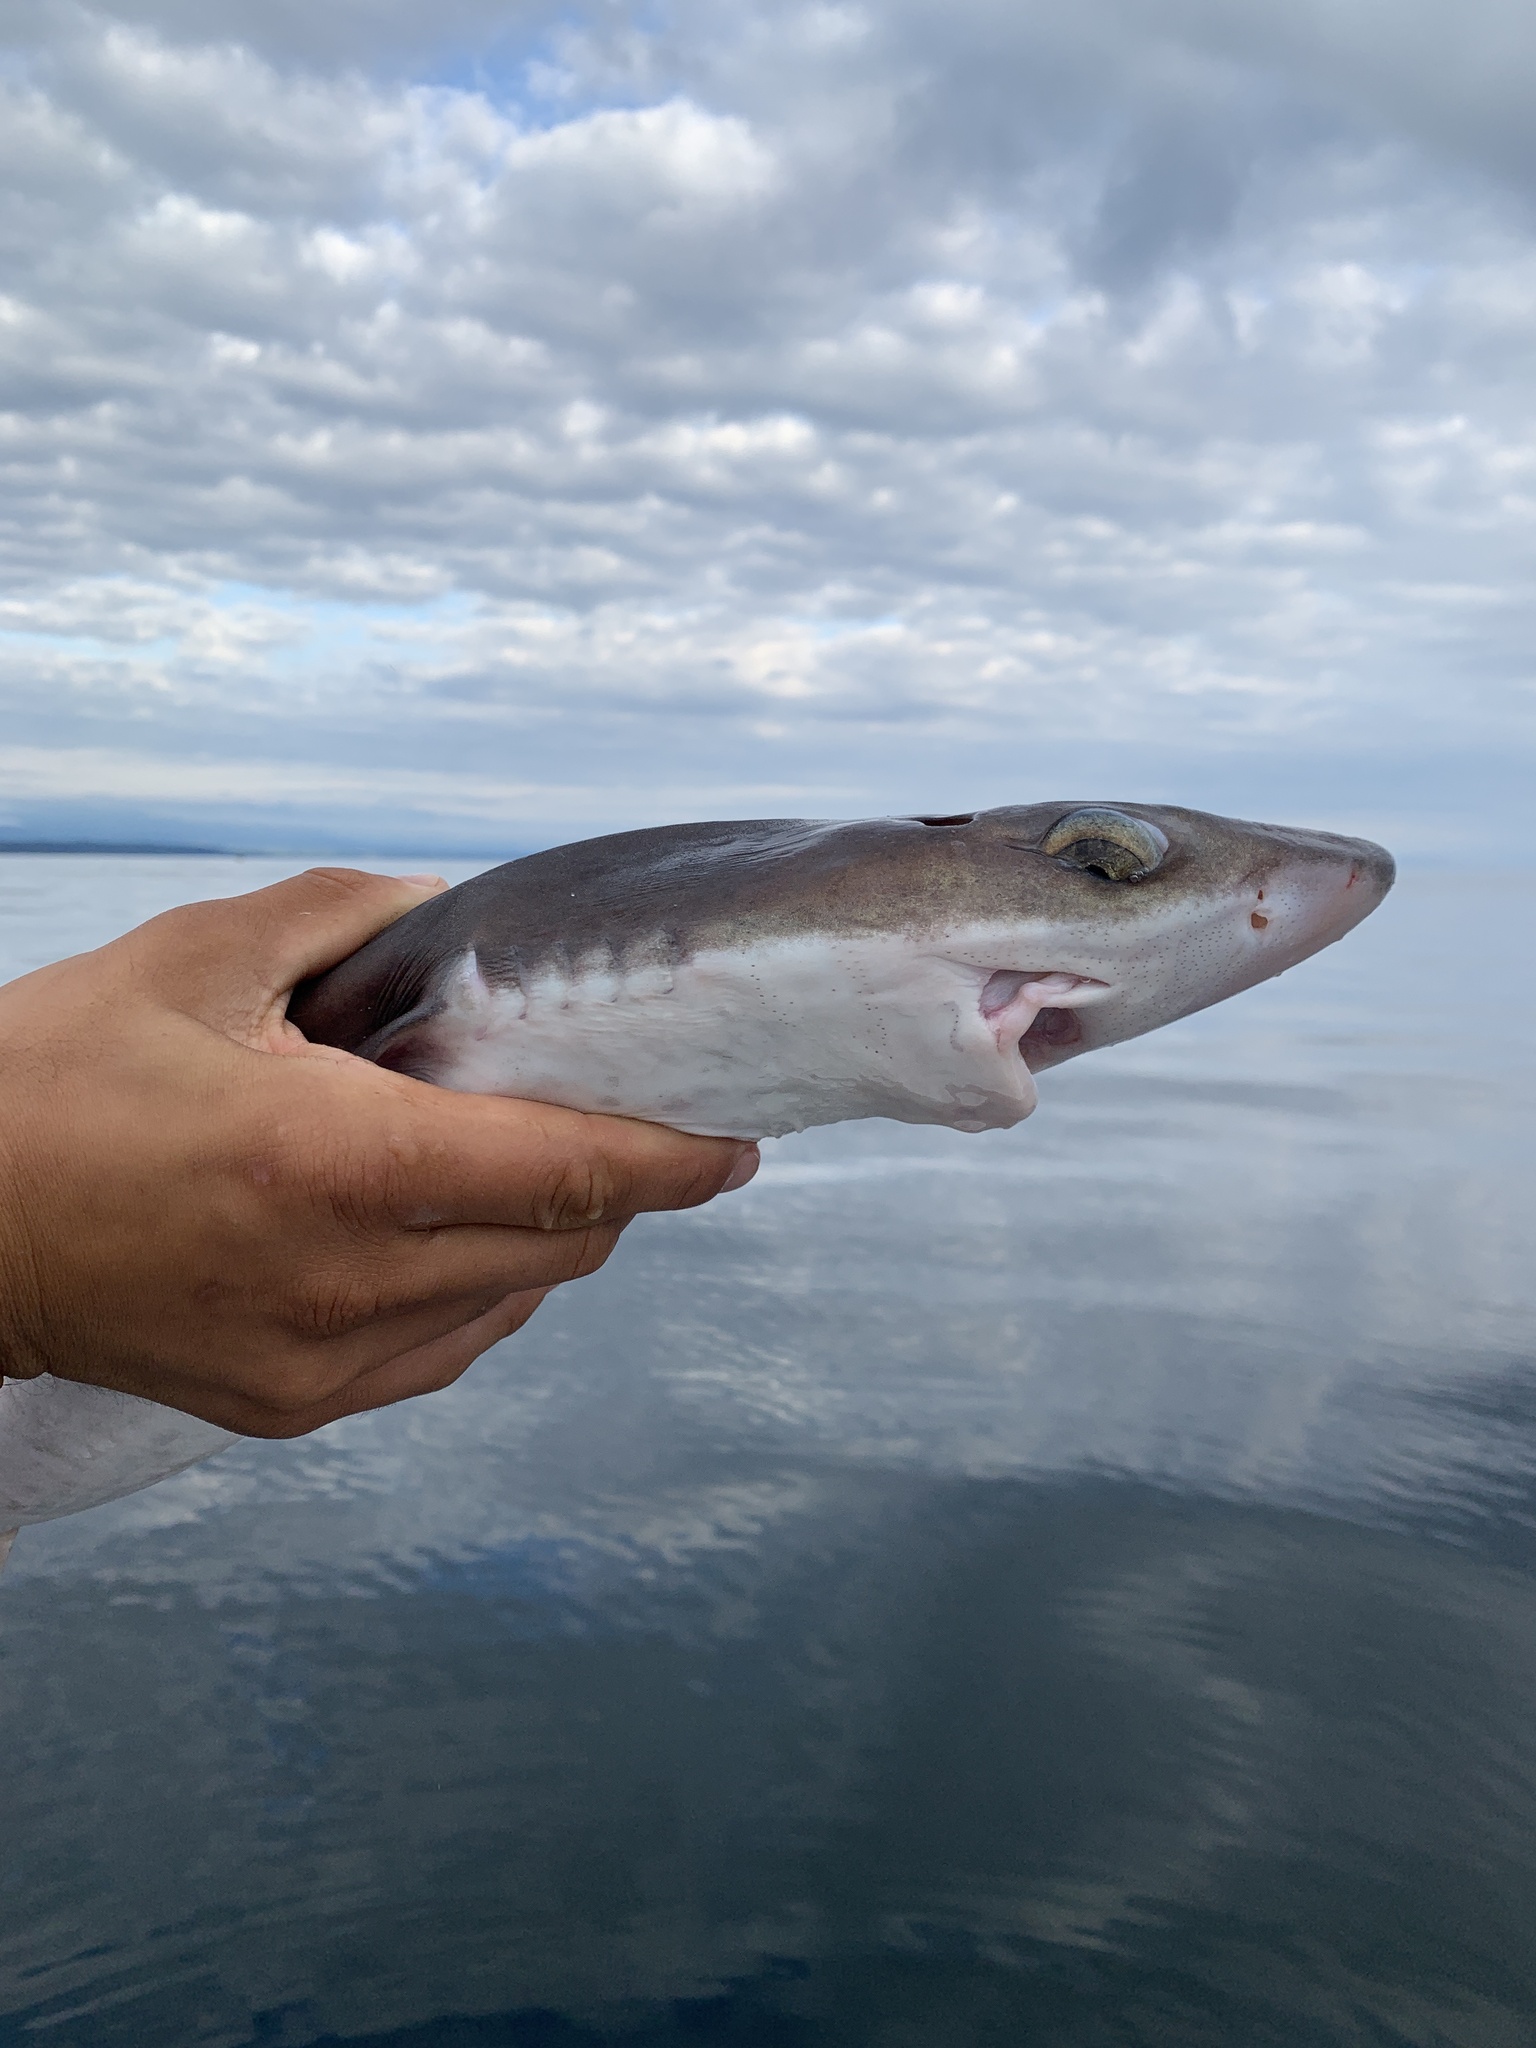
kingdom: Animalia
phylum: Chordata
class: Elasmobranchii
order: Squaliformes
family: Squalidae
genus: Squalus
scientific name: Squalus suckleyi
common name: Spiny dogfish
